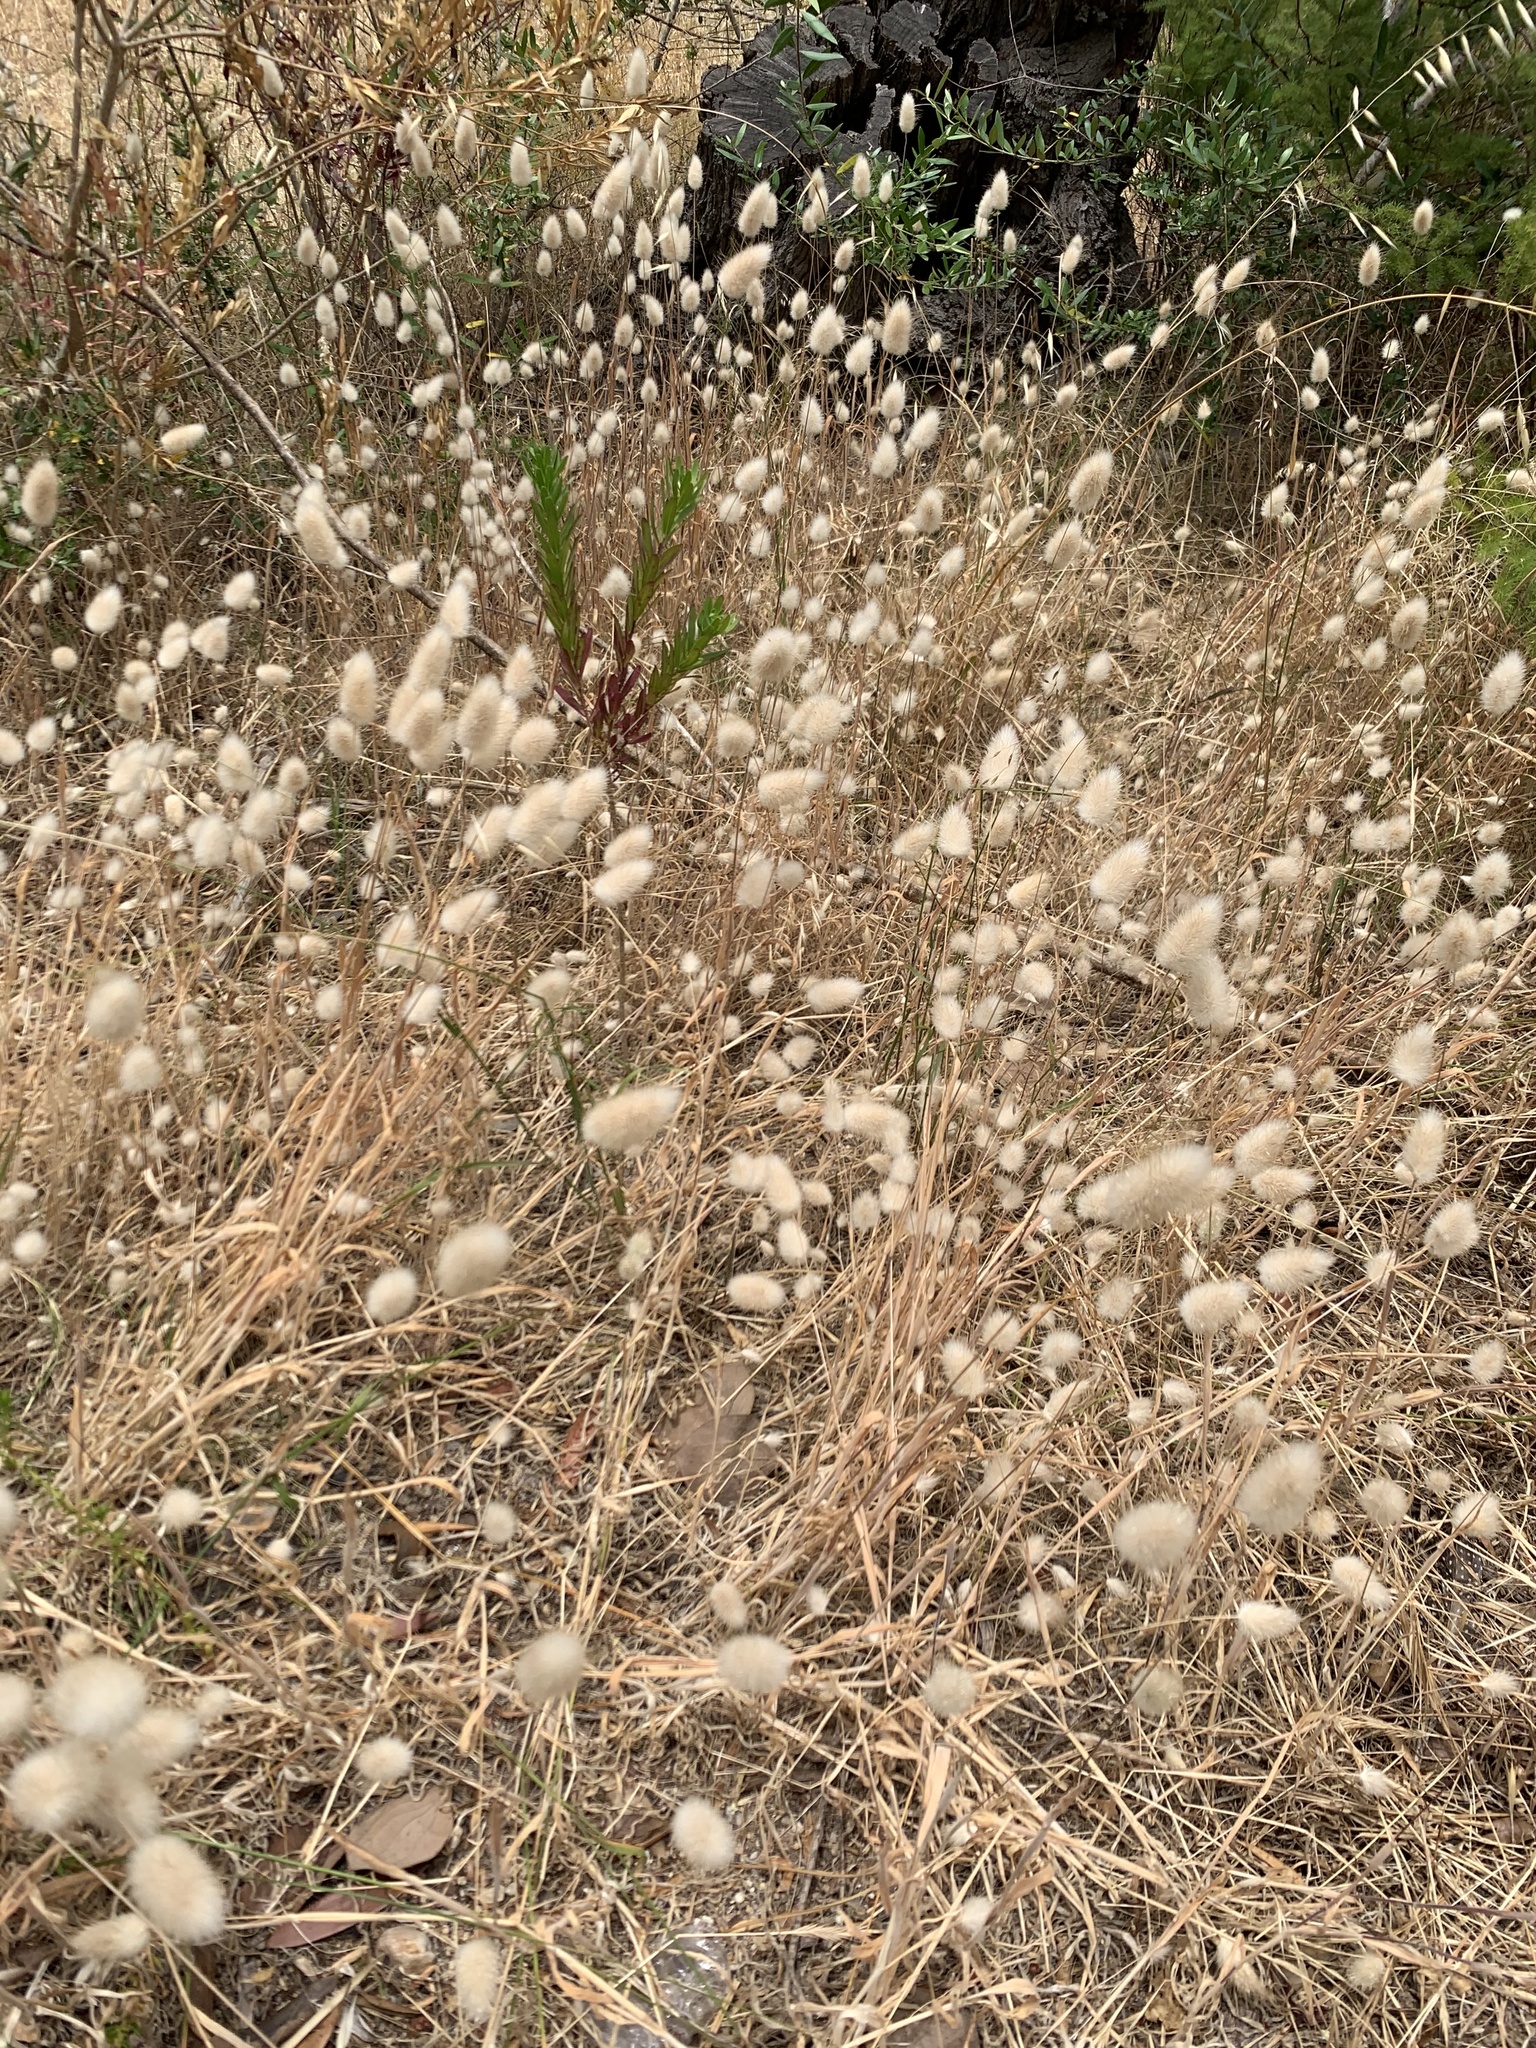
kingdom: Plantae
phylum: Tracheophyta
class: Liliopsida
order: Poales
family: Poaceae
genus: Lagurus
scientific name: Lagurus ovatus
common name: Hare's-tail
